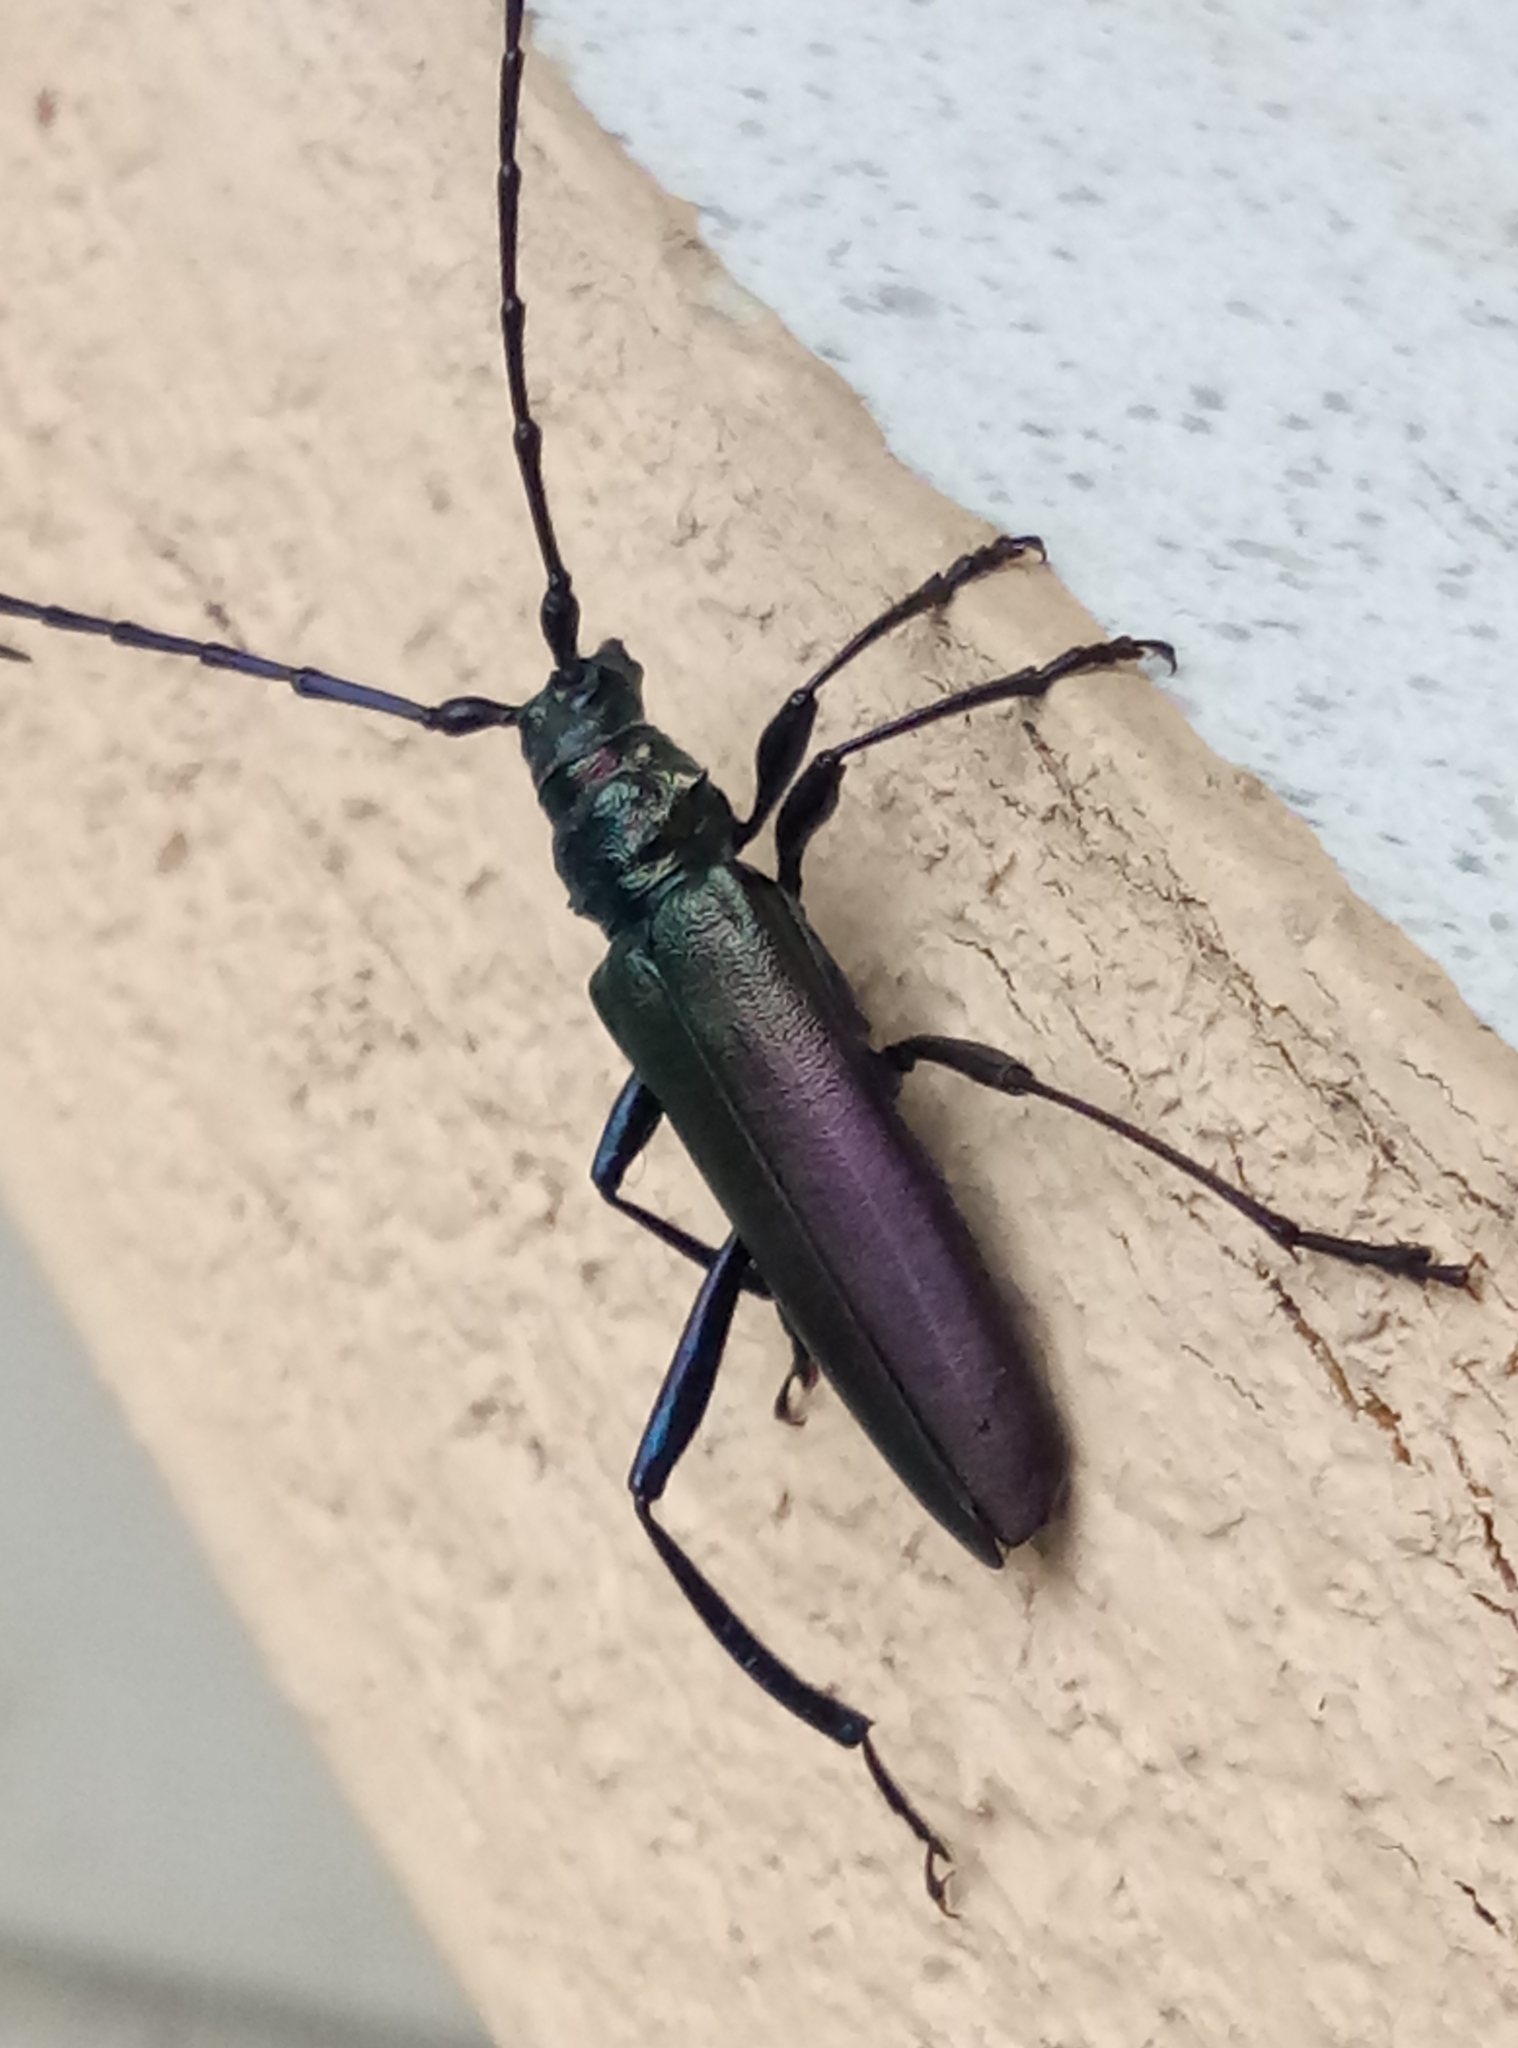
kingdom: Animalia
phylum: Arthropoda
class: Insecta
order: Coleoptera
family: Cerambycidae
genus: Aromia
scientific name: Aromia moschata
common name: Musk beetle
